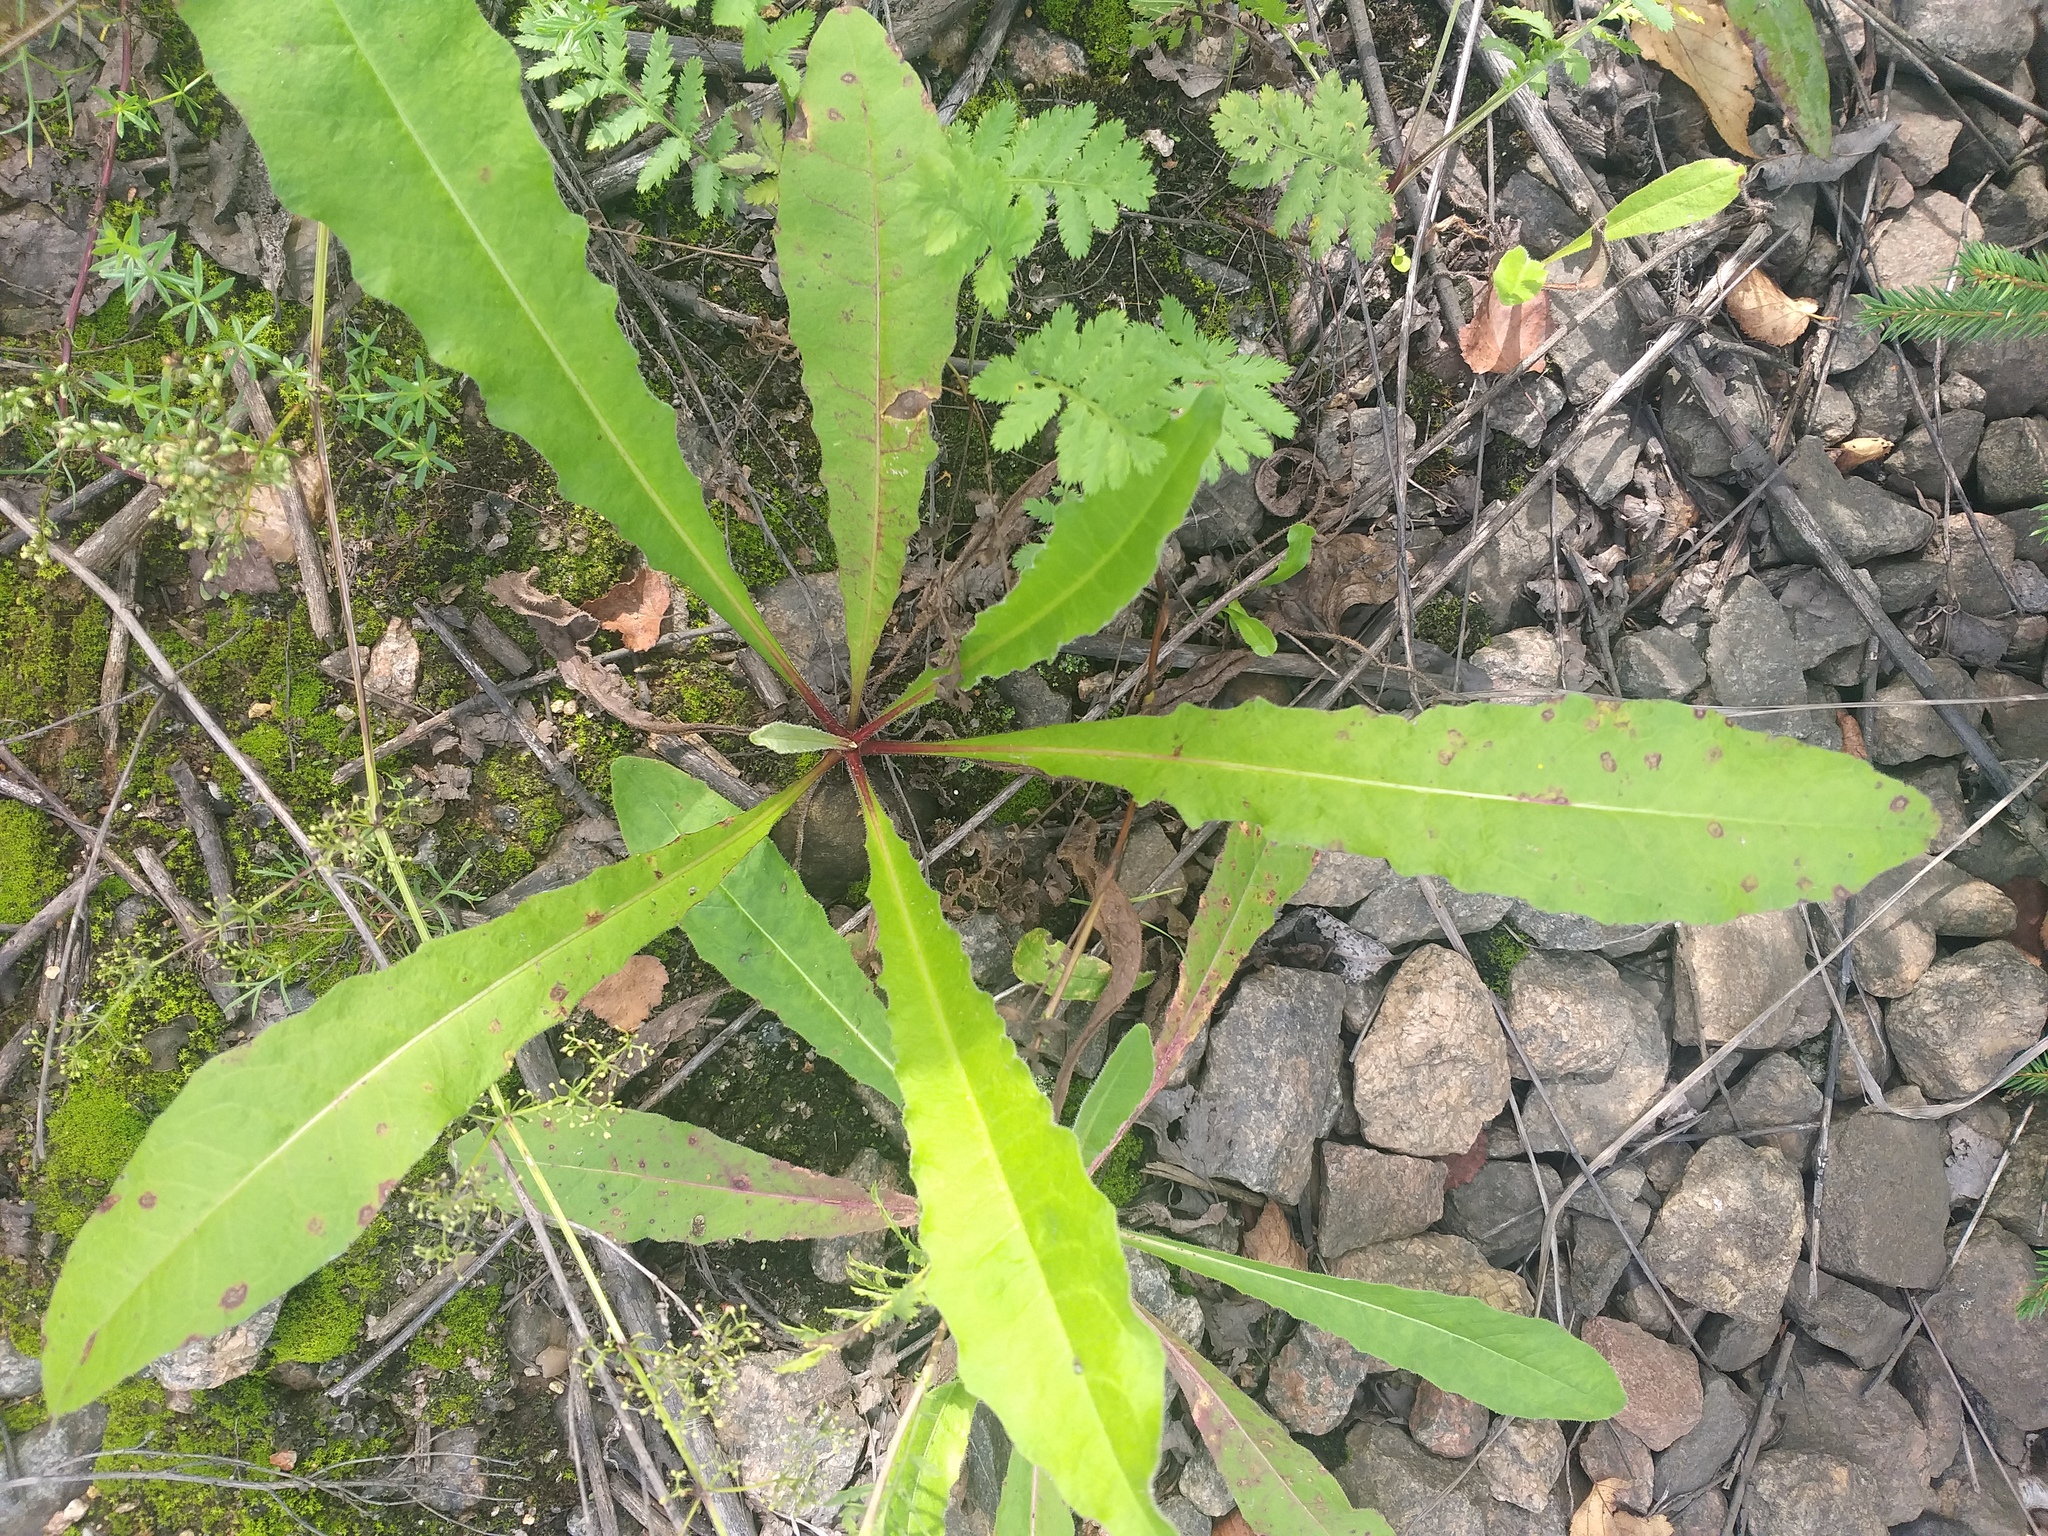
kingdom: Plantae
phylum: Tracheophyta
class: Magnoliopsida
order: Asterales
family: Asteraceae
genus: Picris
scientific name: Picris hieracioides
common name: Hawkweed oxtongue
